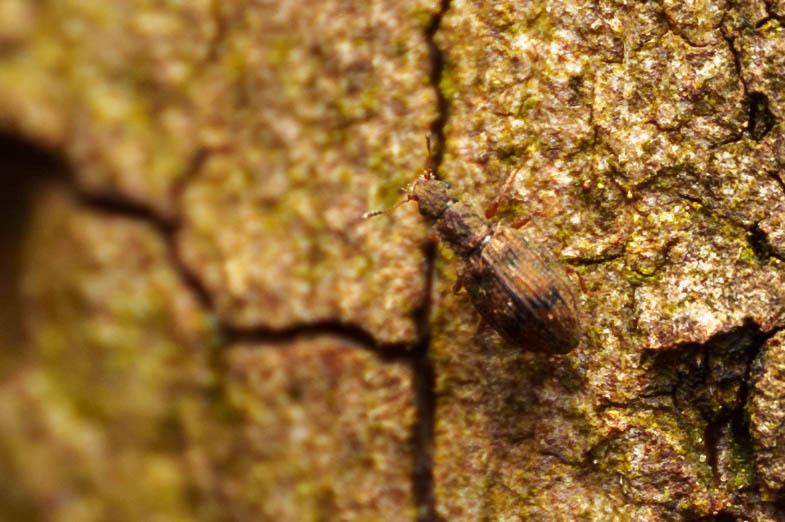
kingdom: Animalia
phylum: Arthropoda
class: Insecta
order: Coleoptera
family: Latridiidae
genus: Cartodere
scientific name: Cartodere bifasciata
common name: Plaster beetle
